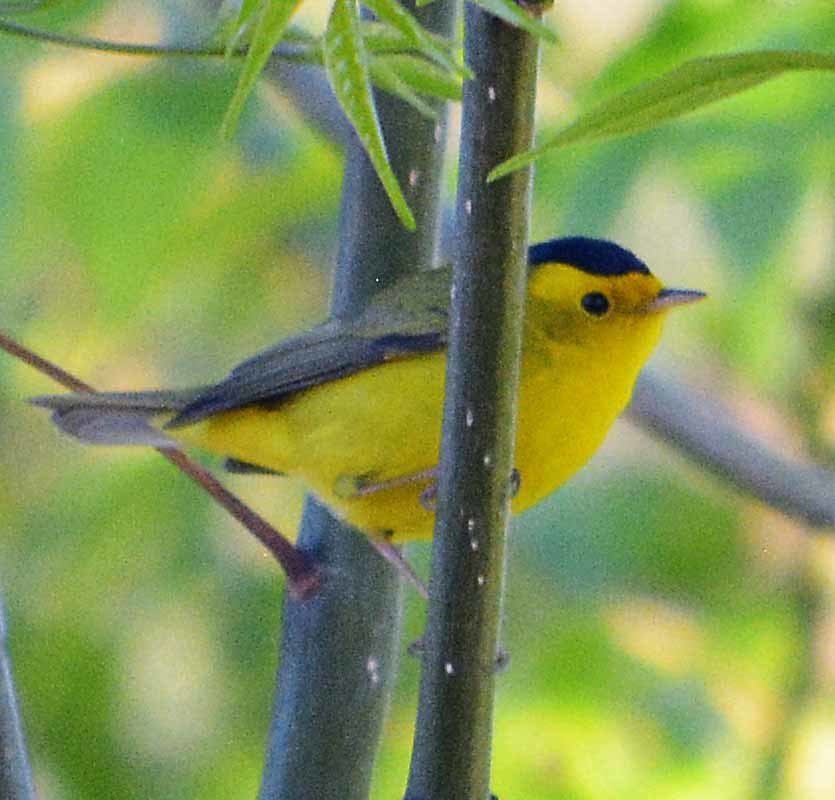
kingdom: Animalia
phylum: Chordata
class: Aves
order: Passeriformes
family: Parulidae
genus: Cardellina
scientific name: Cardellina pusilla
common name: Wilson's warbler
